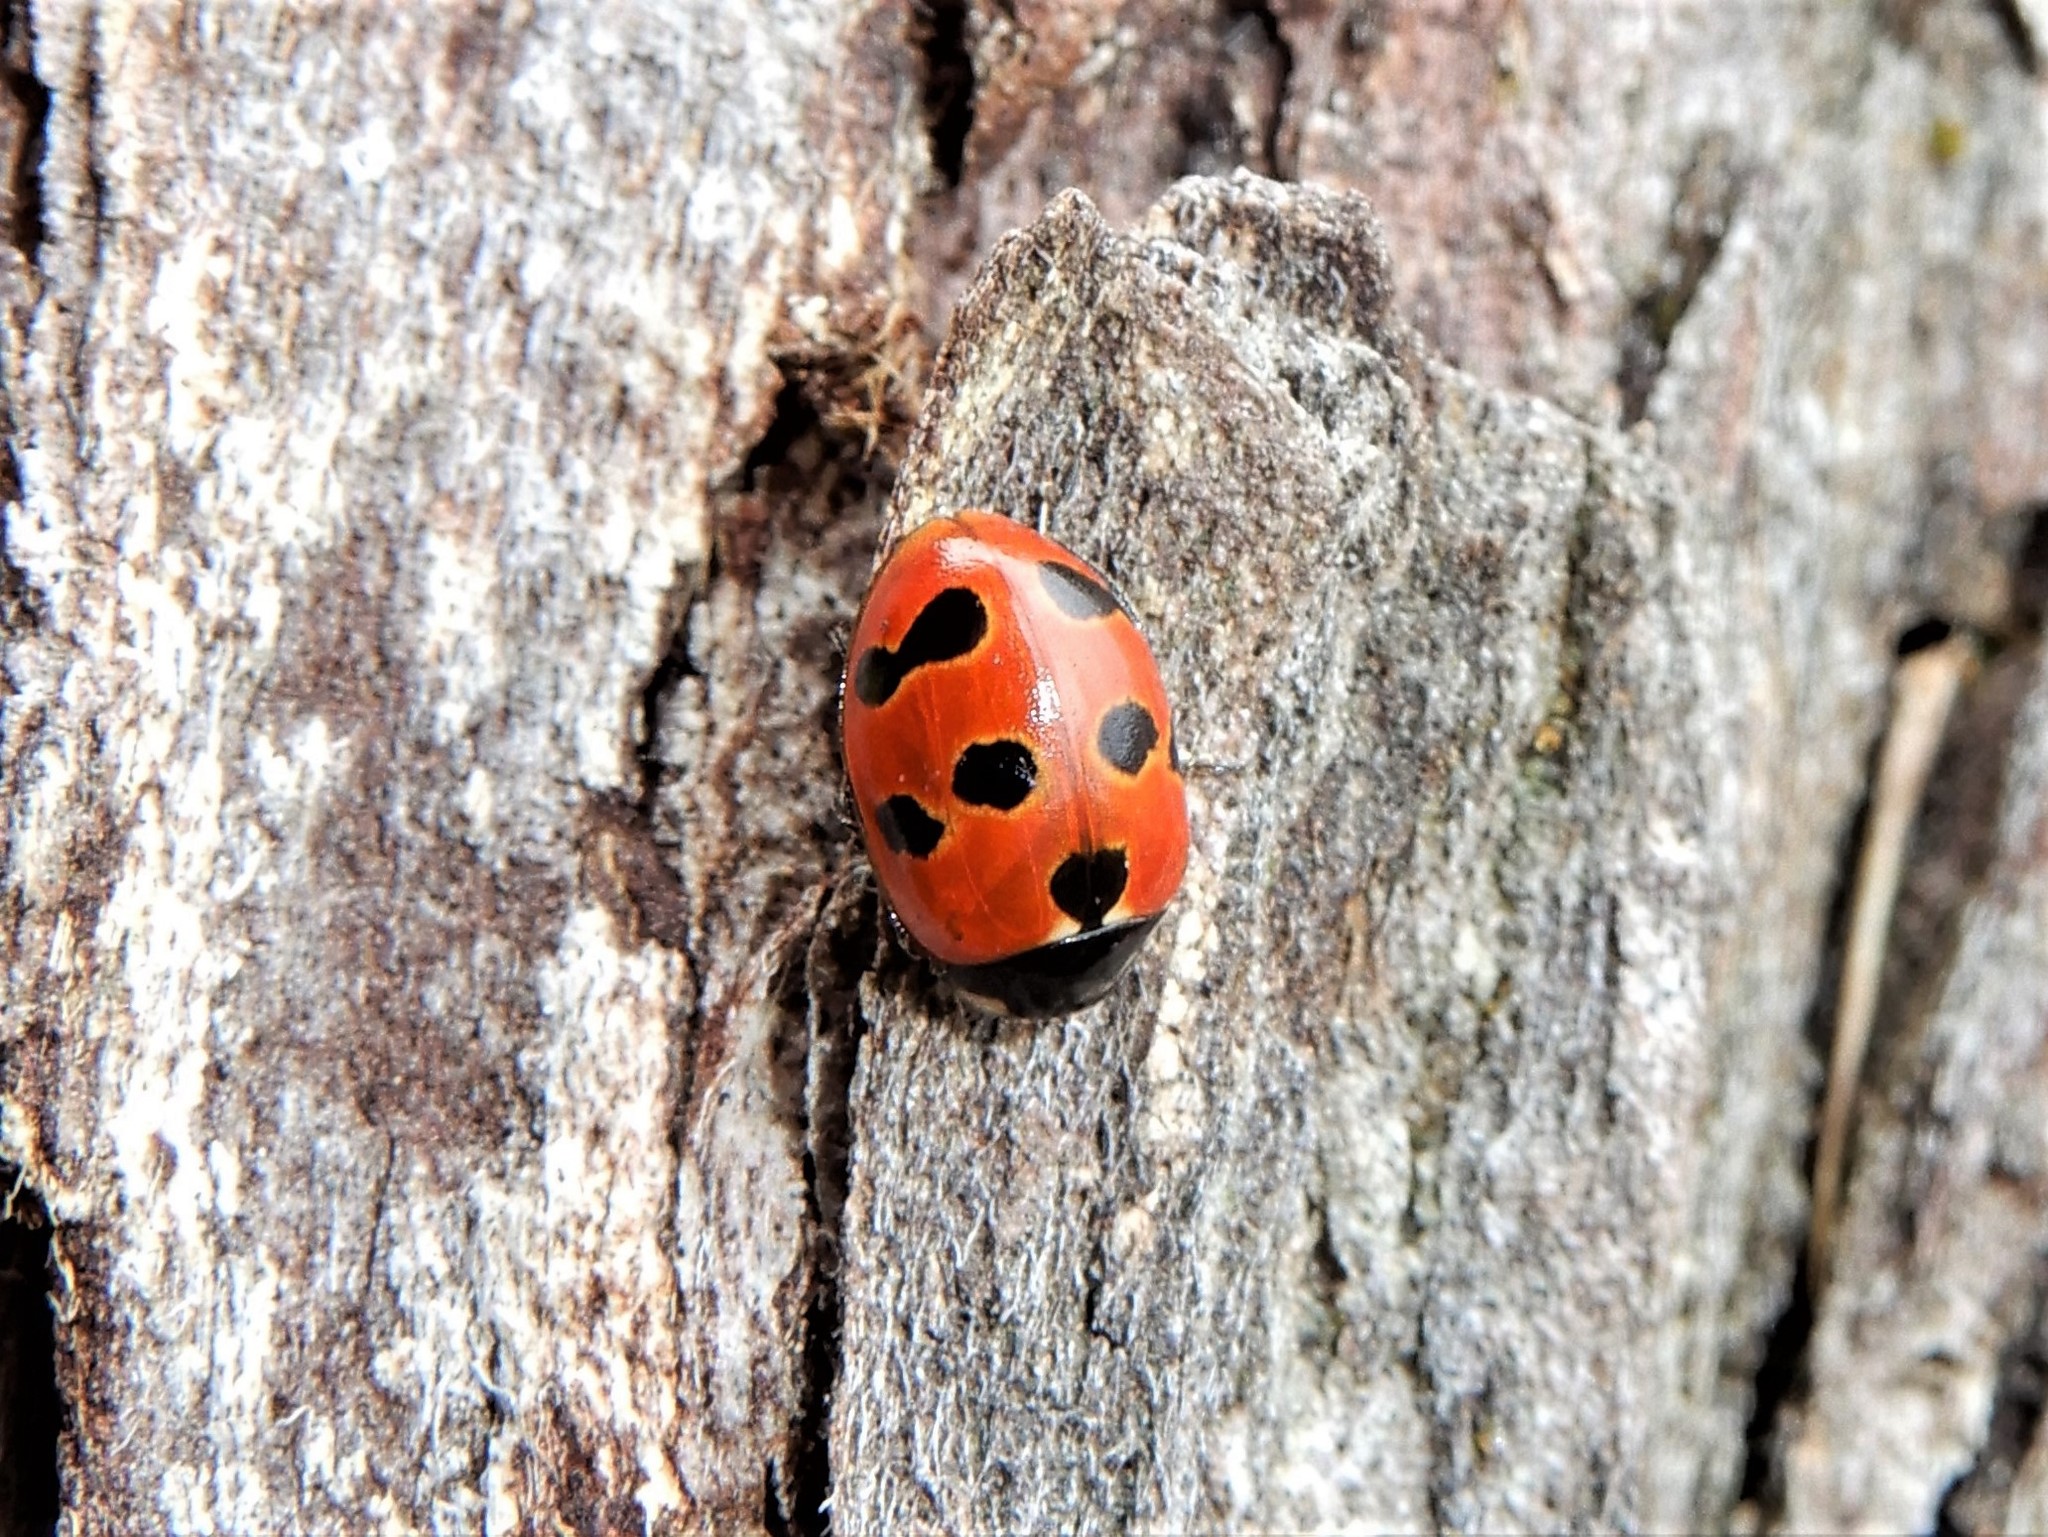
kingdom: Animalia
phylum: Arthropoda
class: Insecta
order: Coleoptera
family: Coccinellidae
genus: Coccinella
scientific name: Coccinella undecimpunctata
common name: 11-spot ladybird
